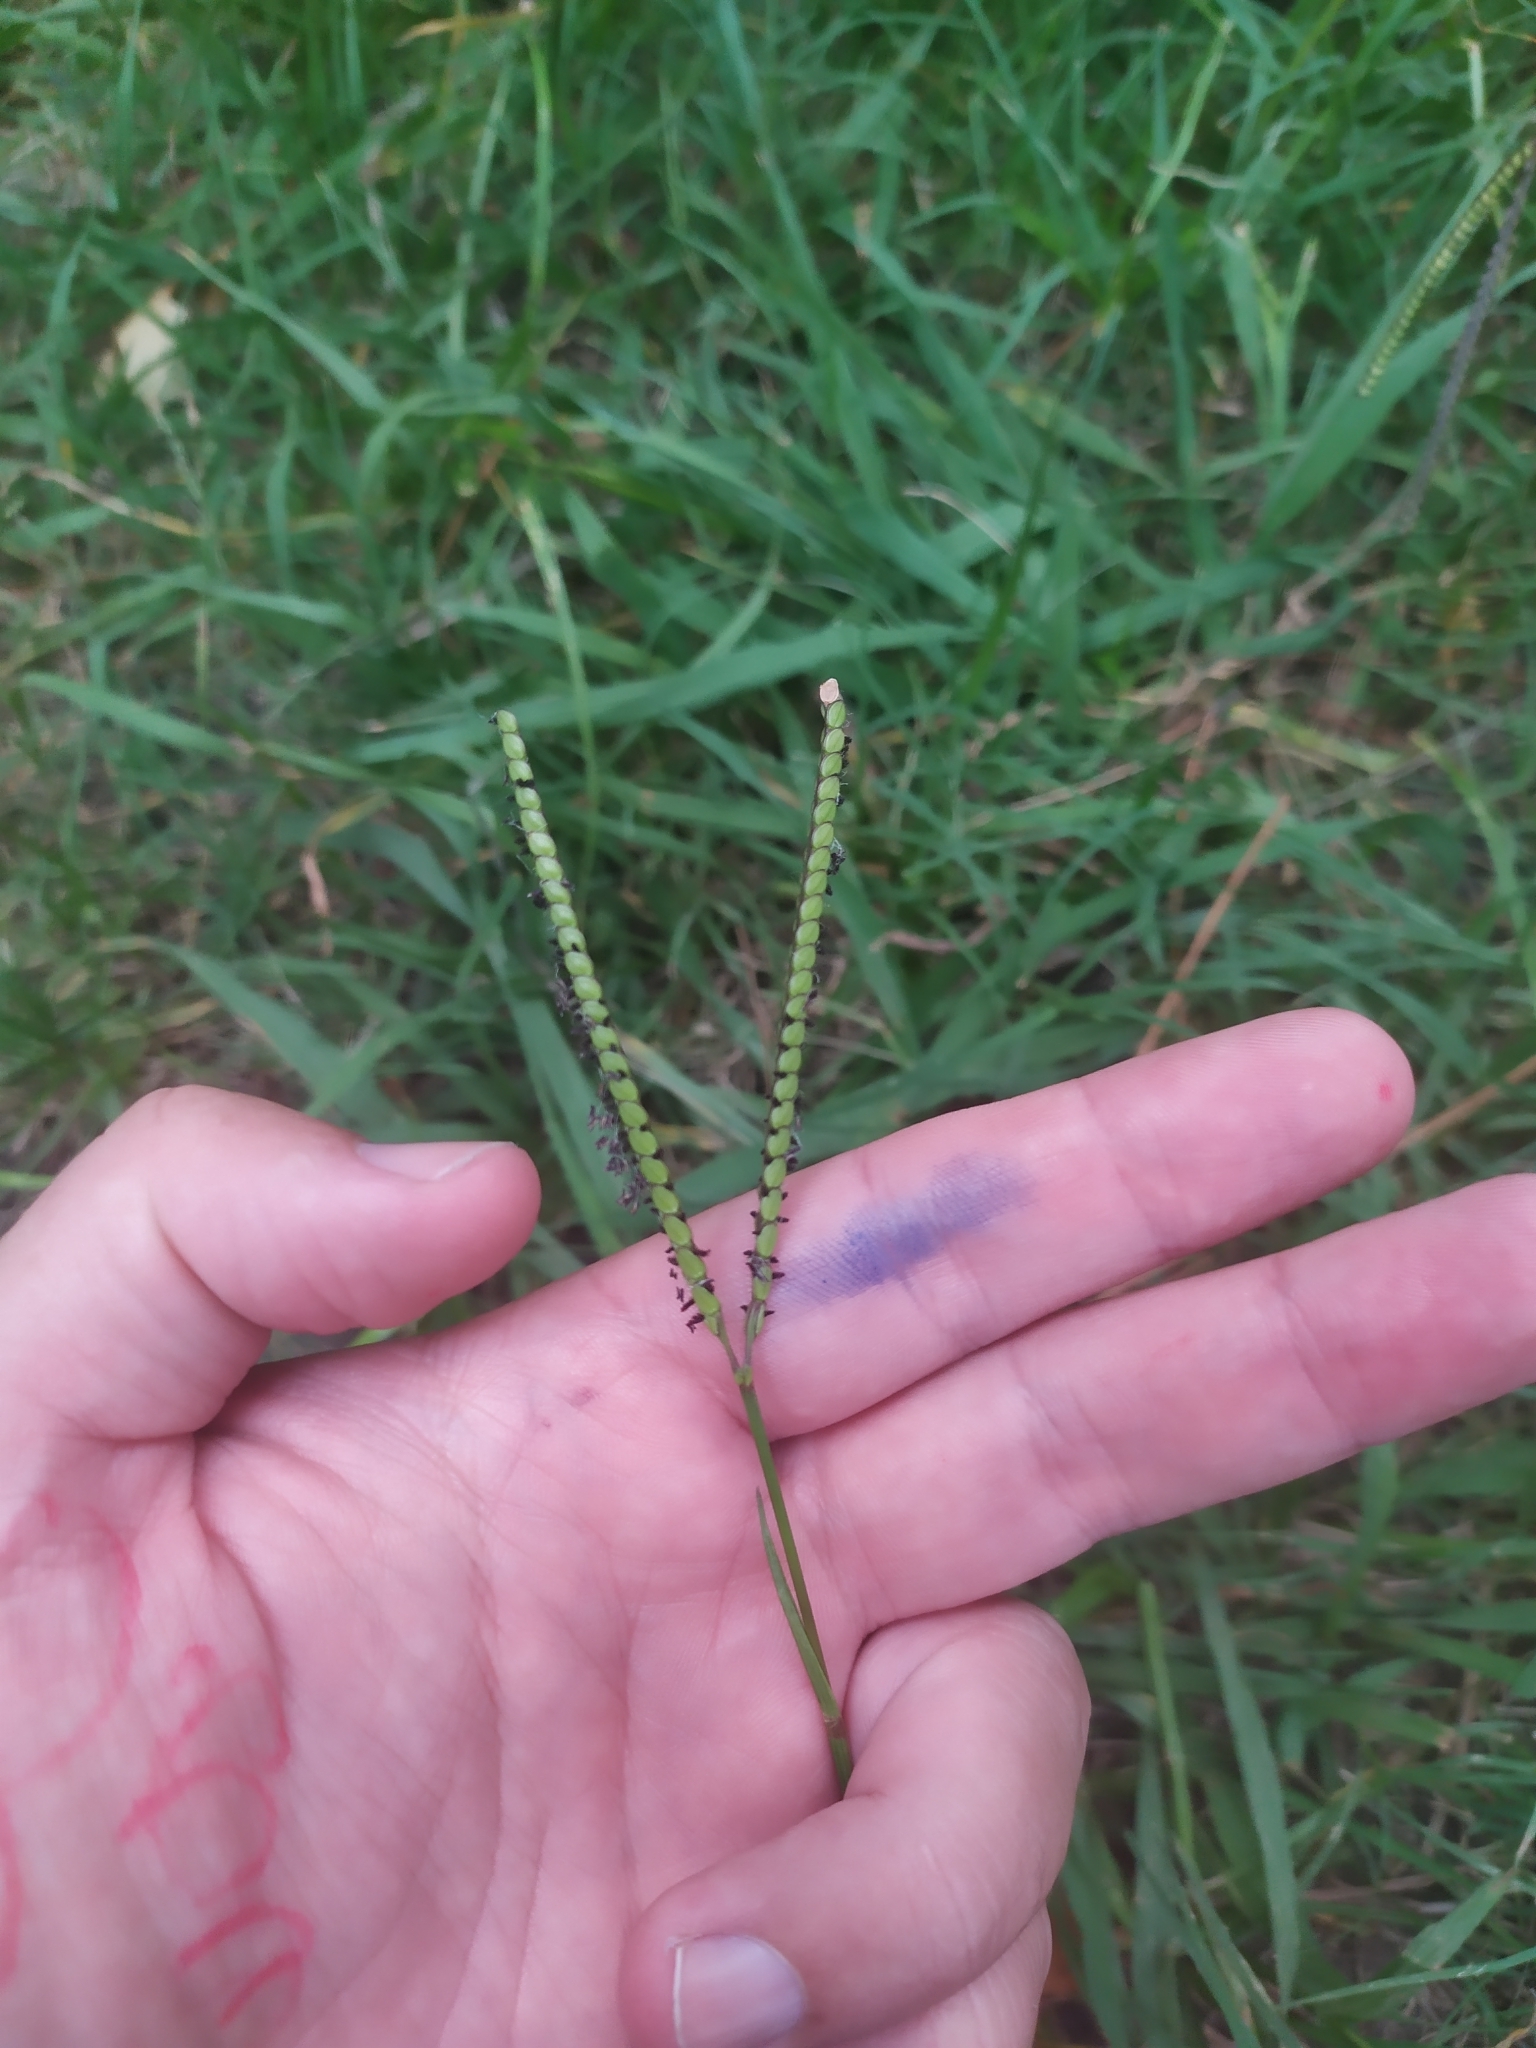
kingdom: Plantae
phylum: Tracheophyta
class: Liliopsida
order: Poales
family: Poaceae
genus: Paspalum
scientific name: Paspalum notatum
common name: Bahiagrass
